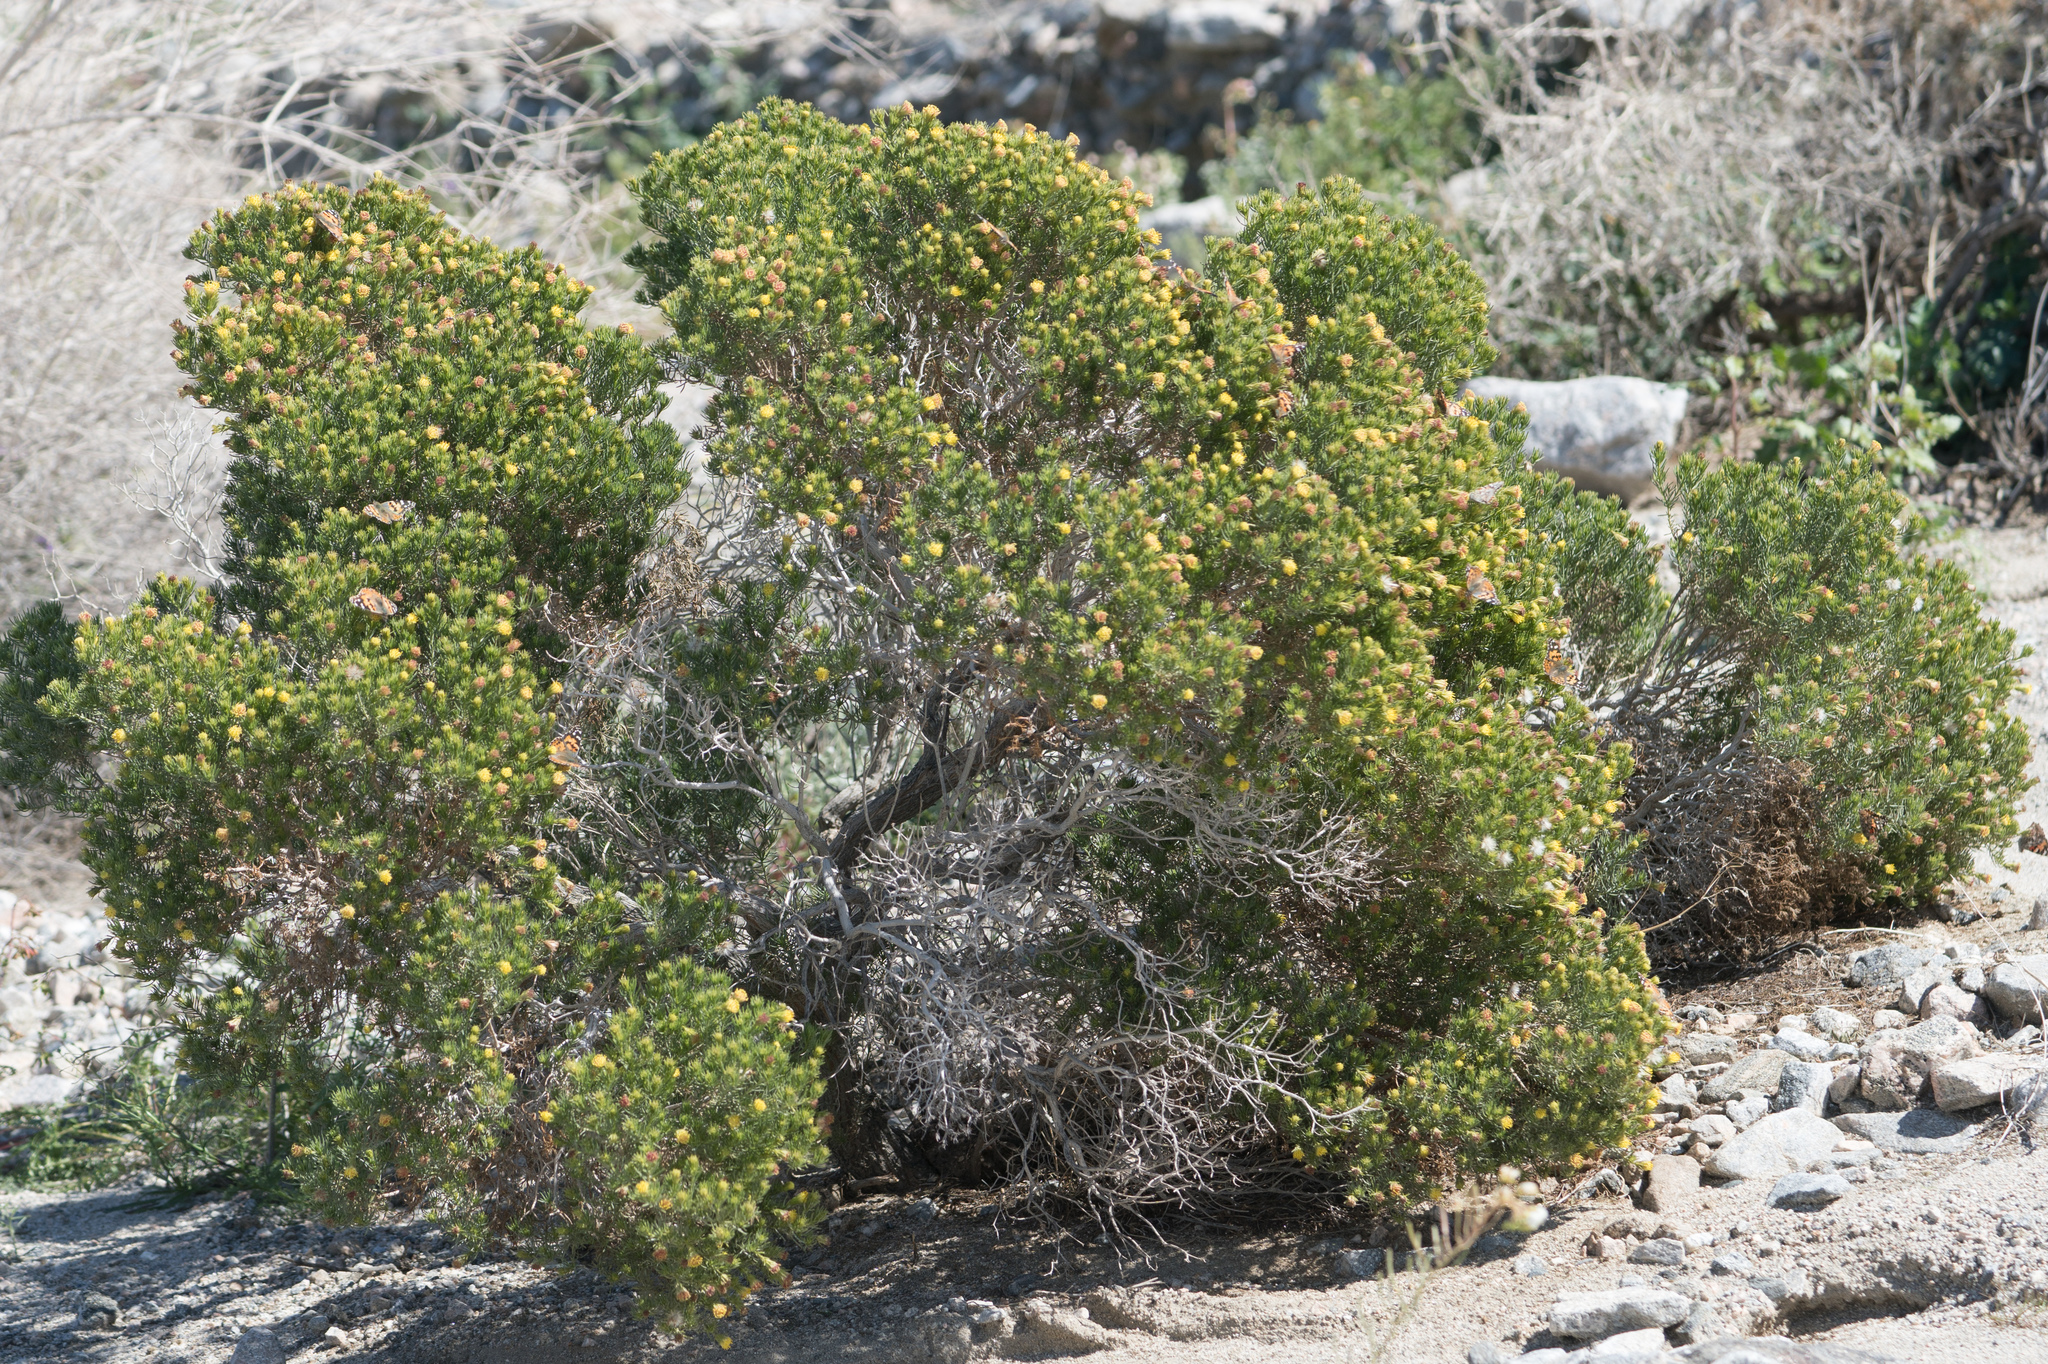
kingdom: Plantae
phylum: Tracheophyta
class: Magnoliopsida
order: Asterales
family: Asteraceae
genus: Peucephyllum
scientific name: Peucephyllum schottii
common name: Pygmy-cedar
